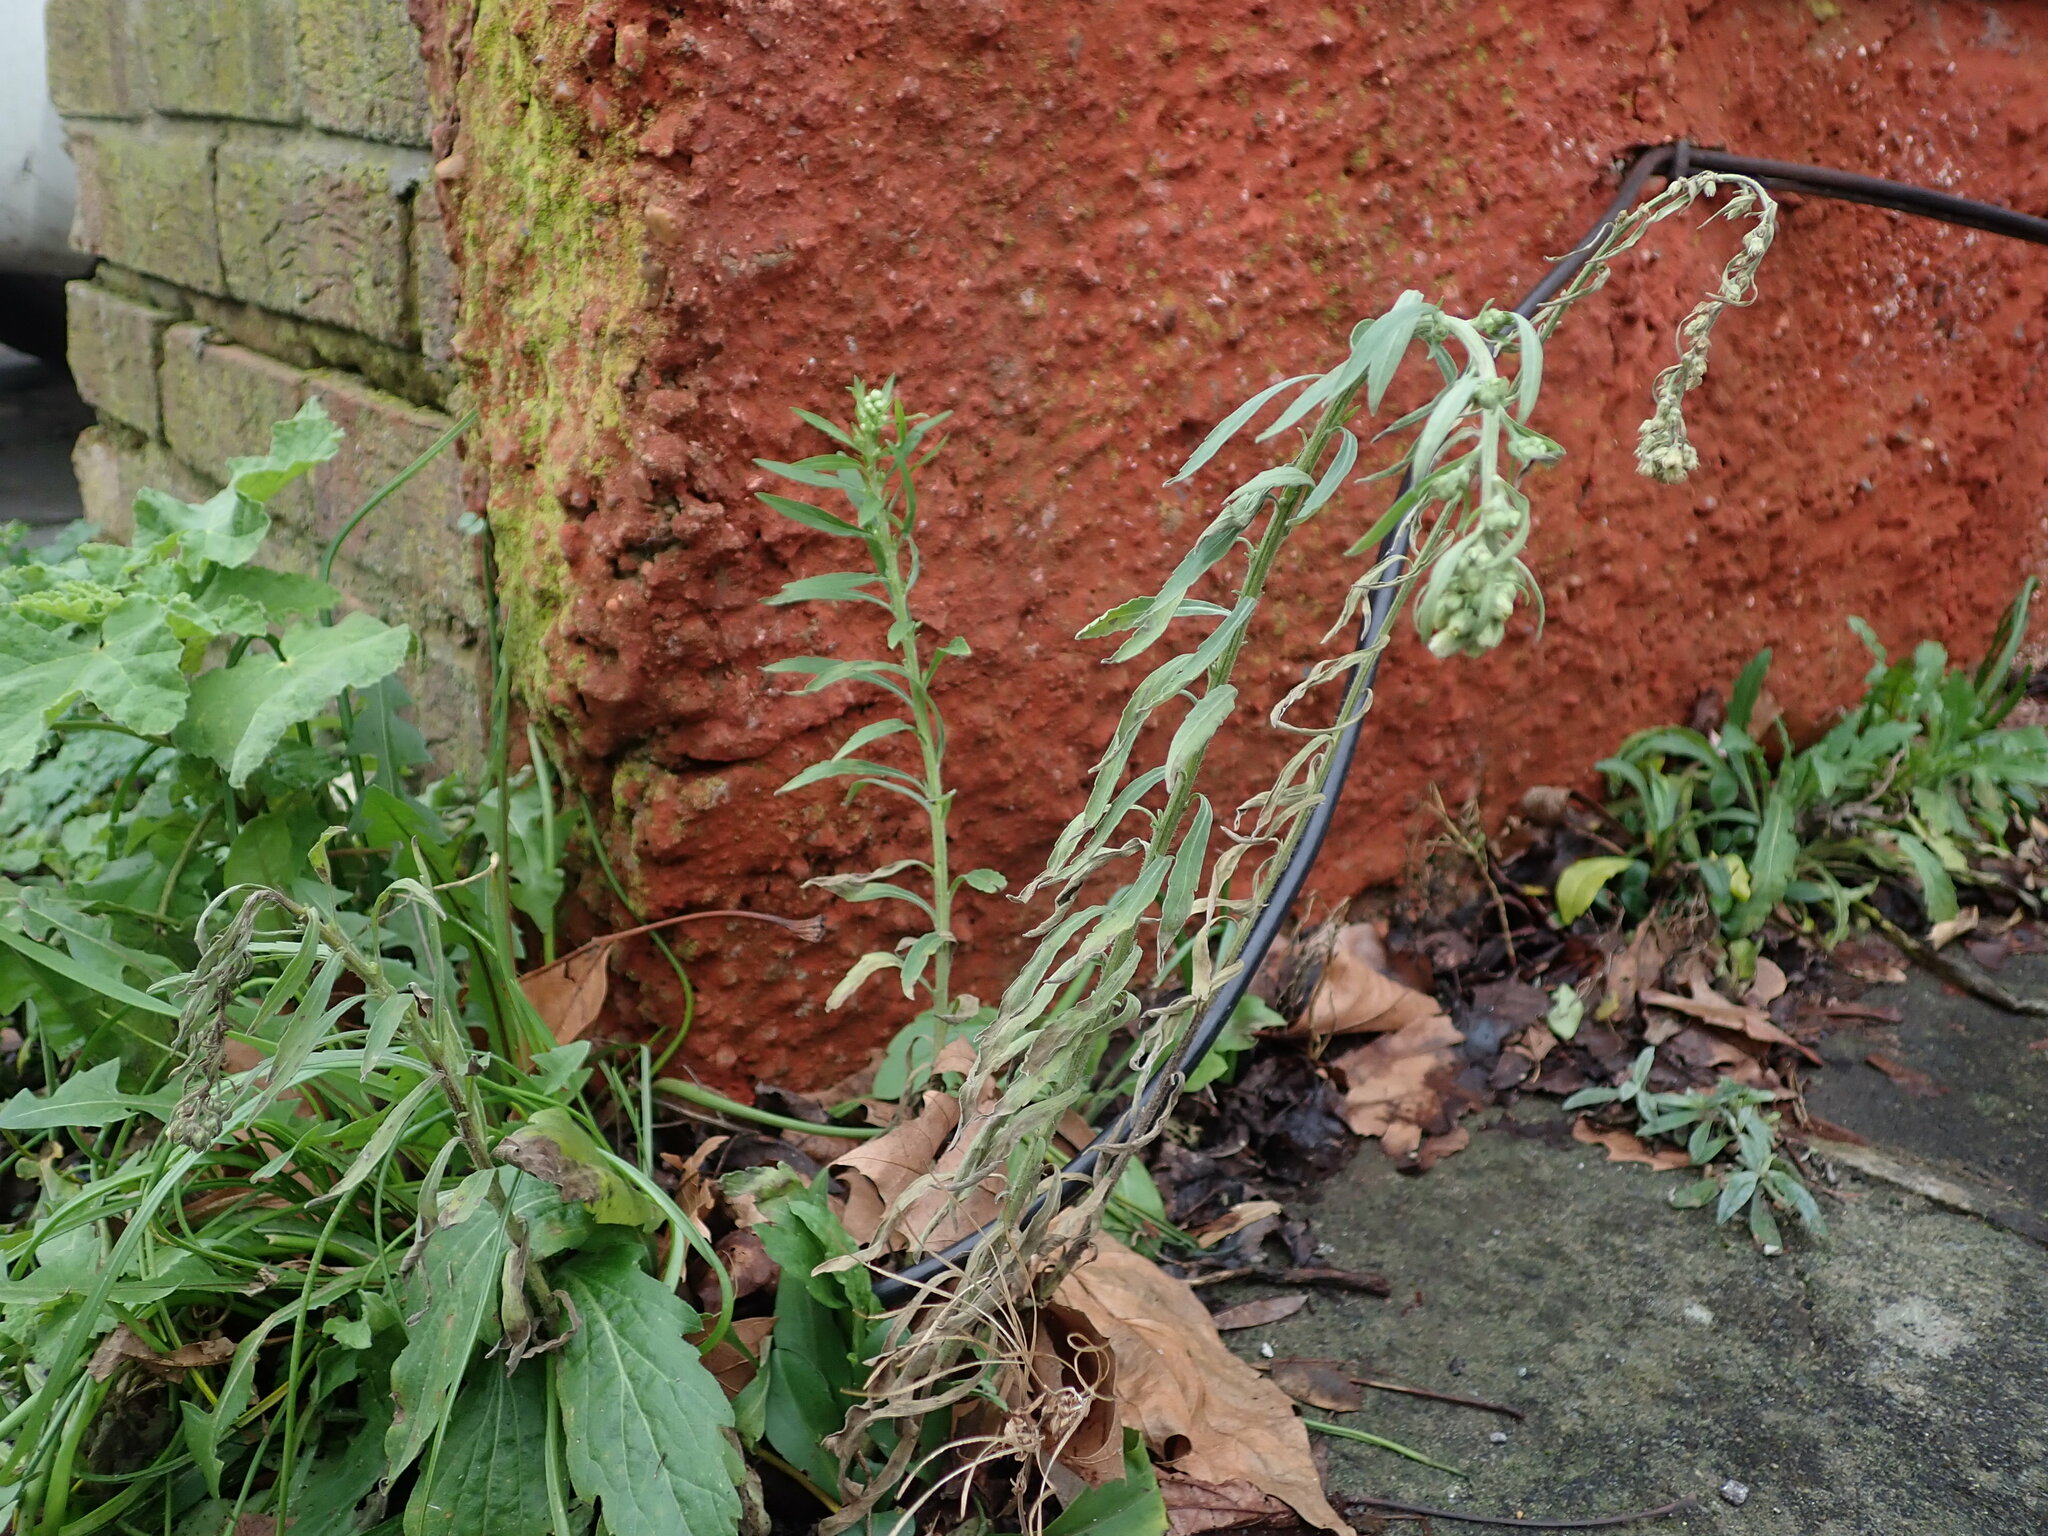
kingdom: Plantae
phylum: Tracheophyta
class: Magnoliopsida
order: Asterales
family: Asteraceae
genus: Erigeron
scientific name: Erigeron sumatrensis
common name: Daisy
